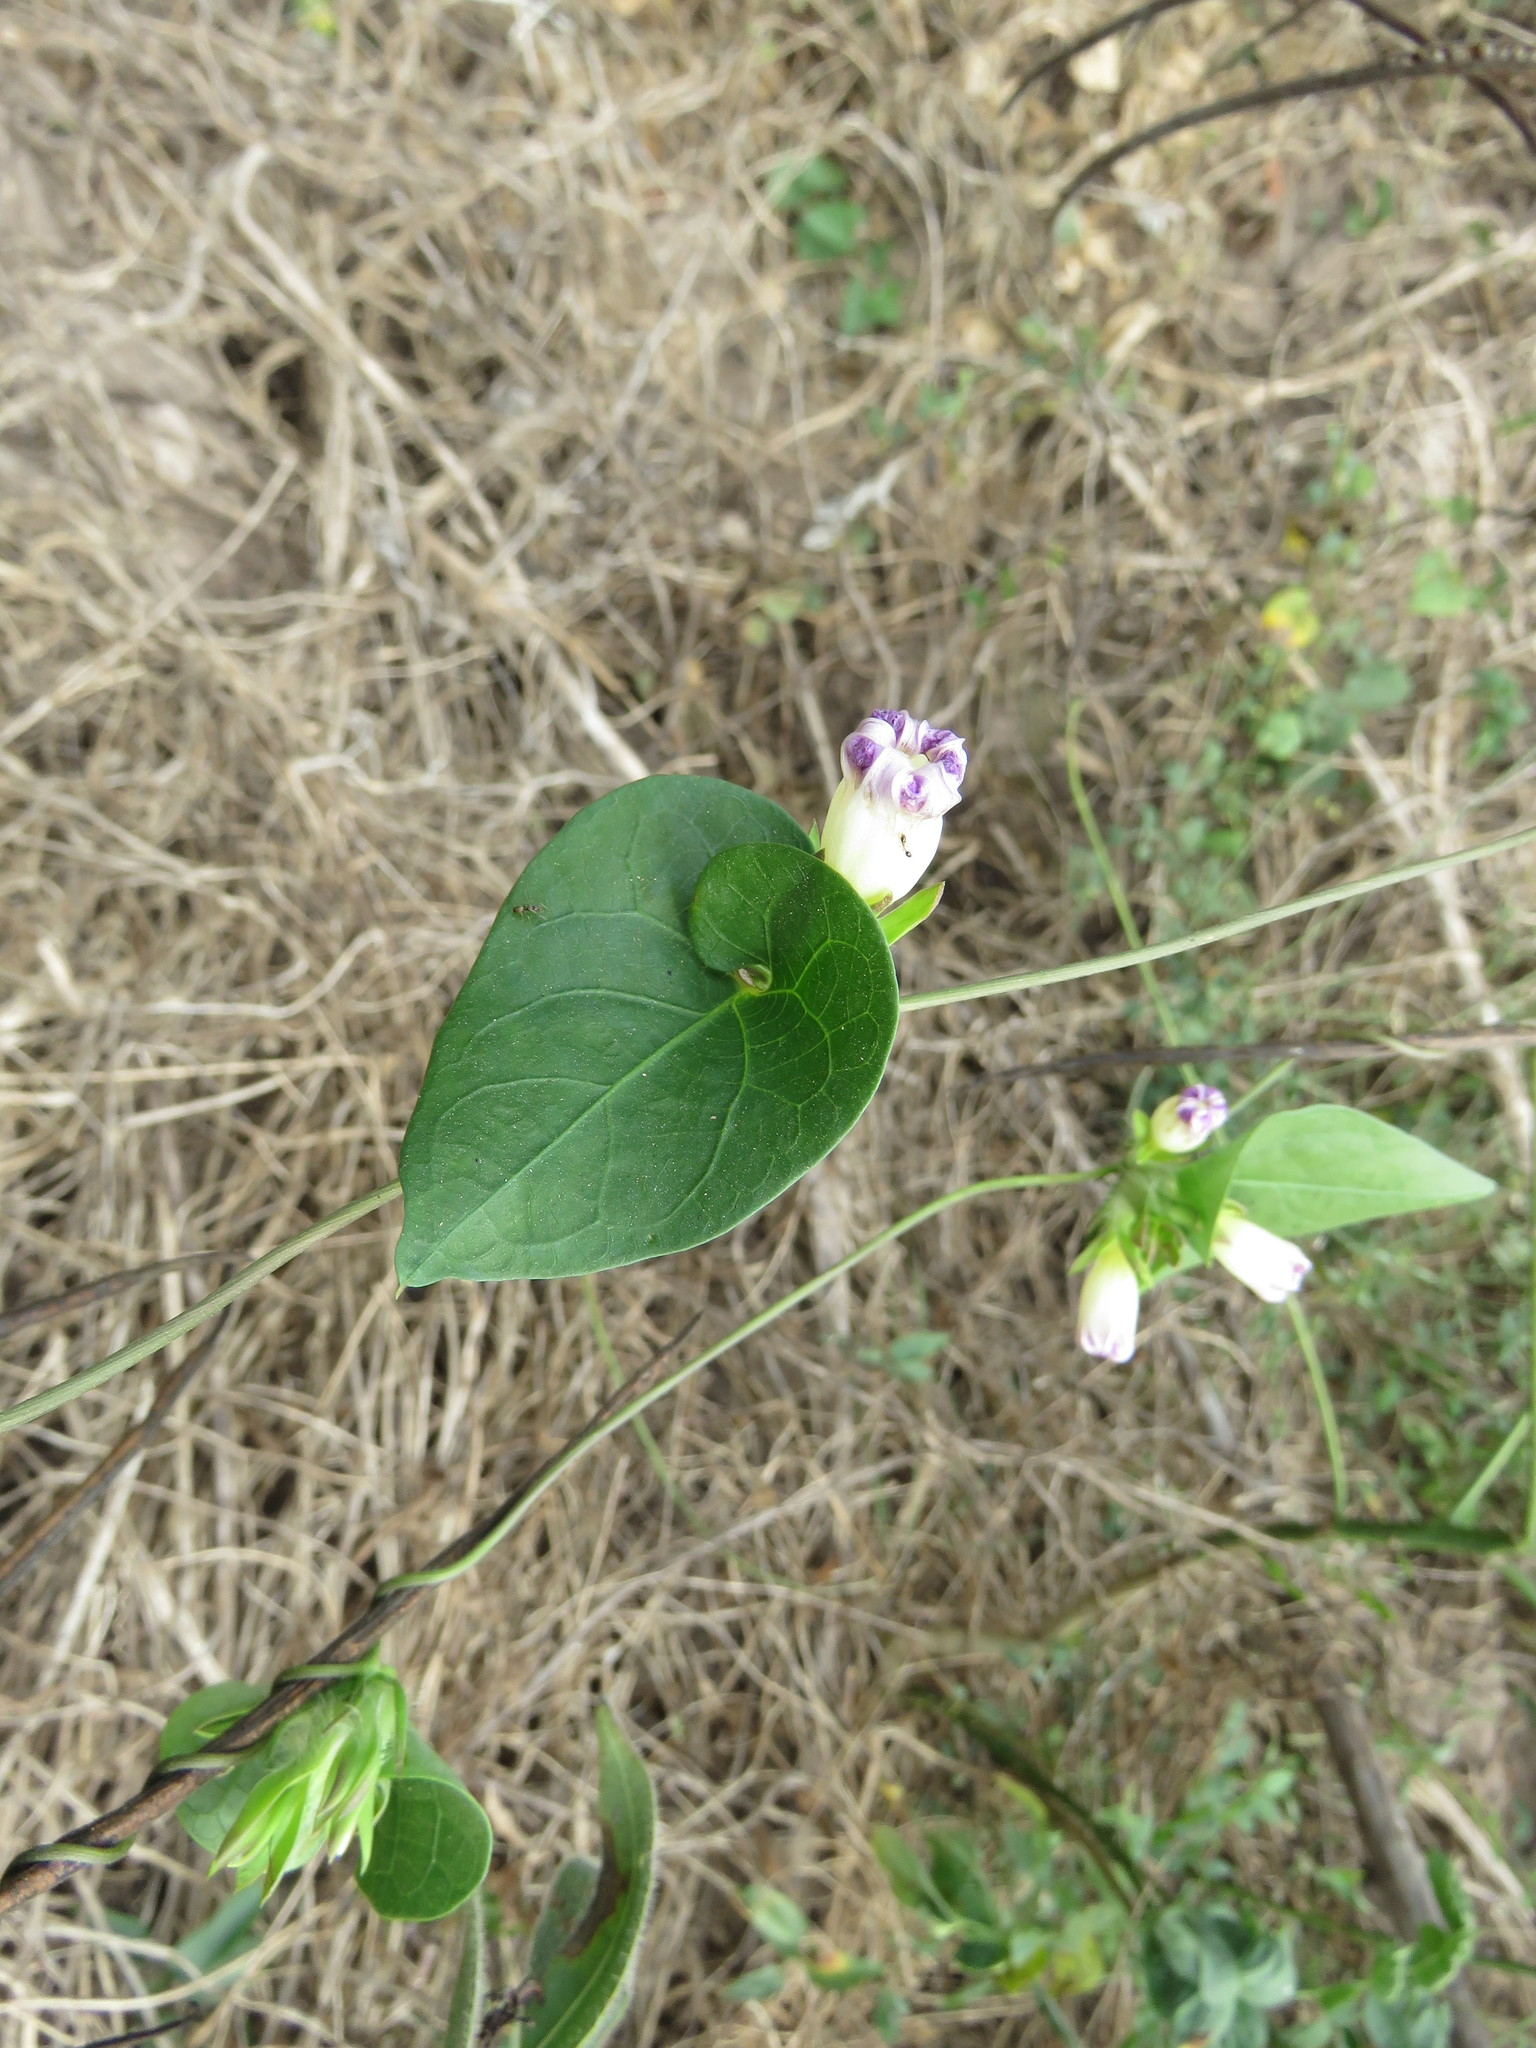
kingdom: Plantae
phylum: Tracheophyta
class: Magnoliopsida
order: Solanales
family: Convolvulaceae
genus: Ipomoea
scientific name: Ipomoea meyeri
